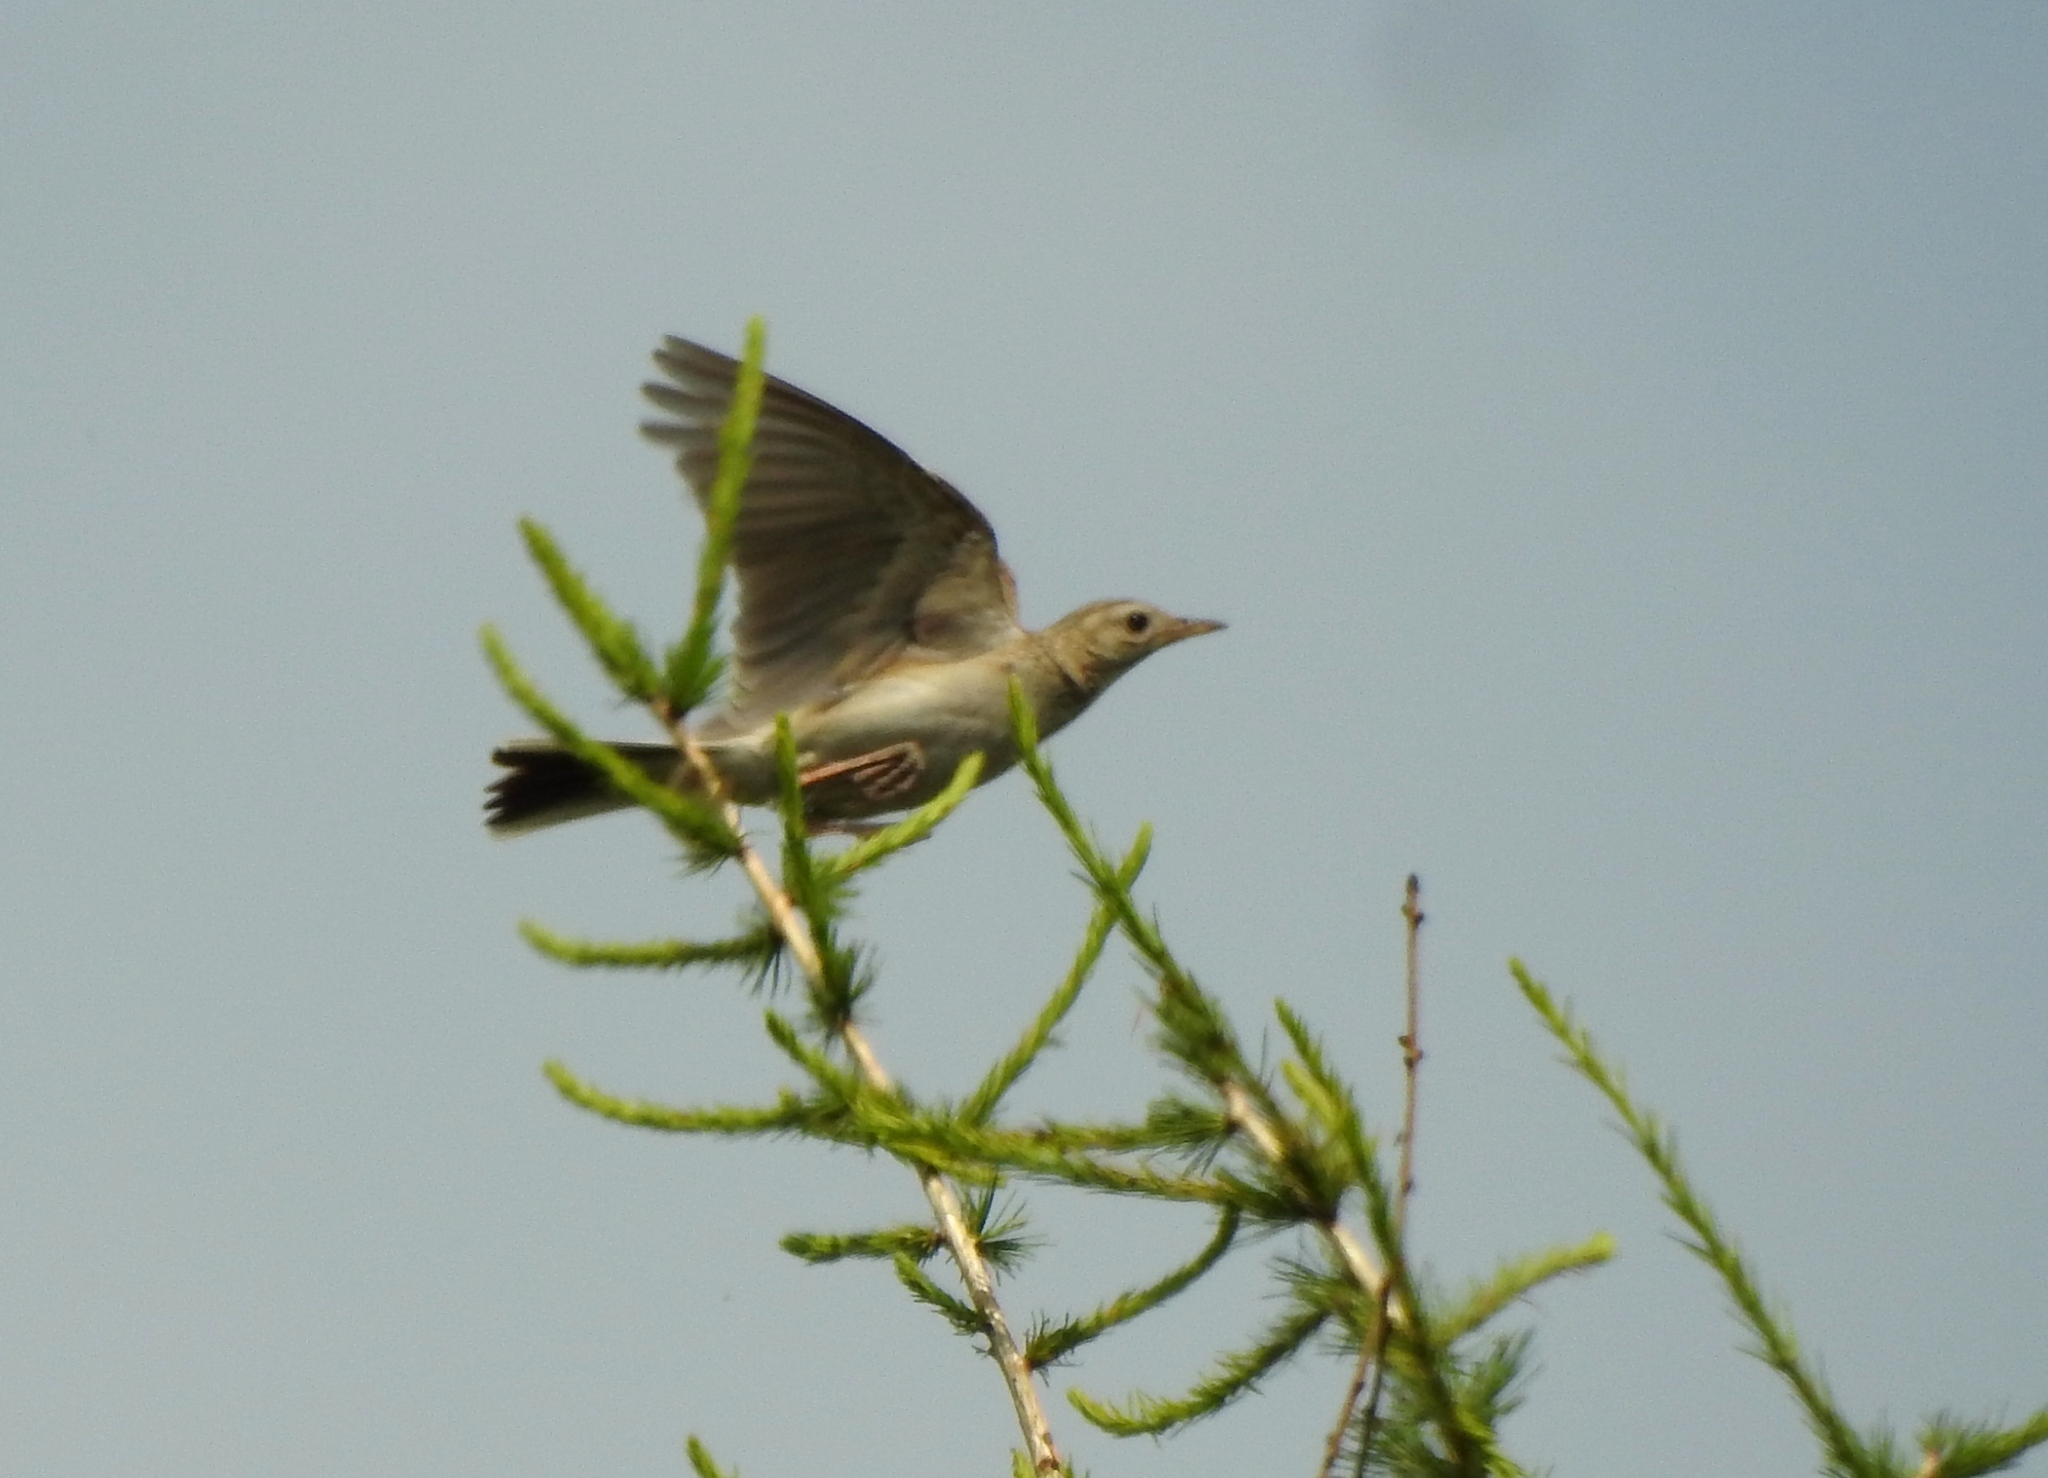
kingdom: Animalia
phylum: Chordata
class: Aves
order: Passeriformes
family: Motacillidae
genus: Anthus
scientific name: Anthus richardi
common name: Richard's pipit
